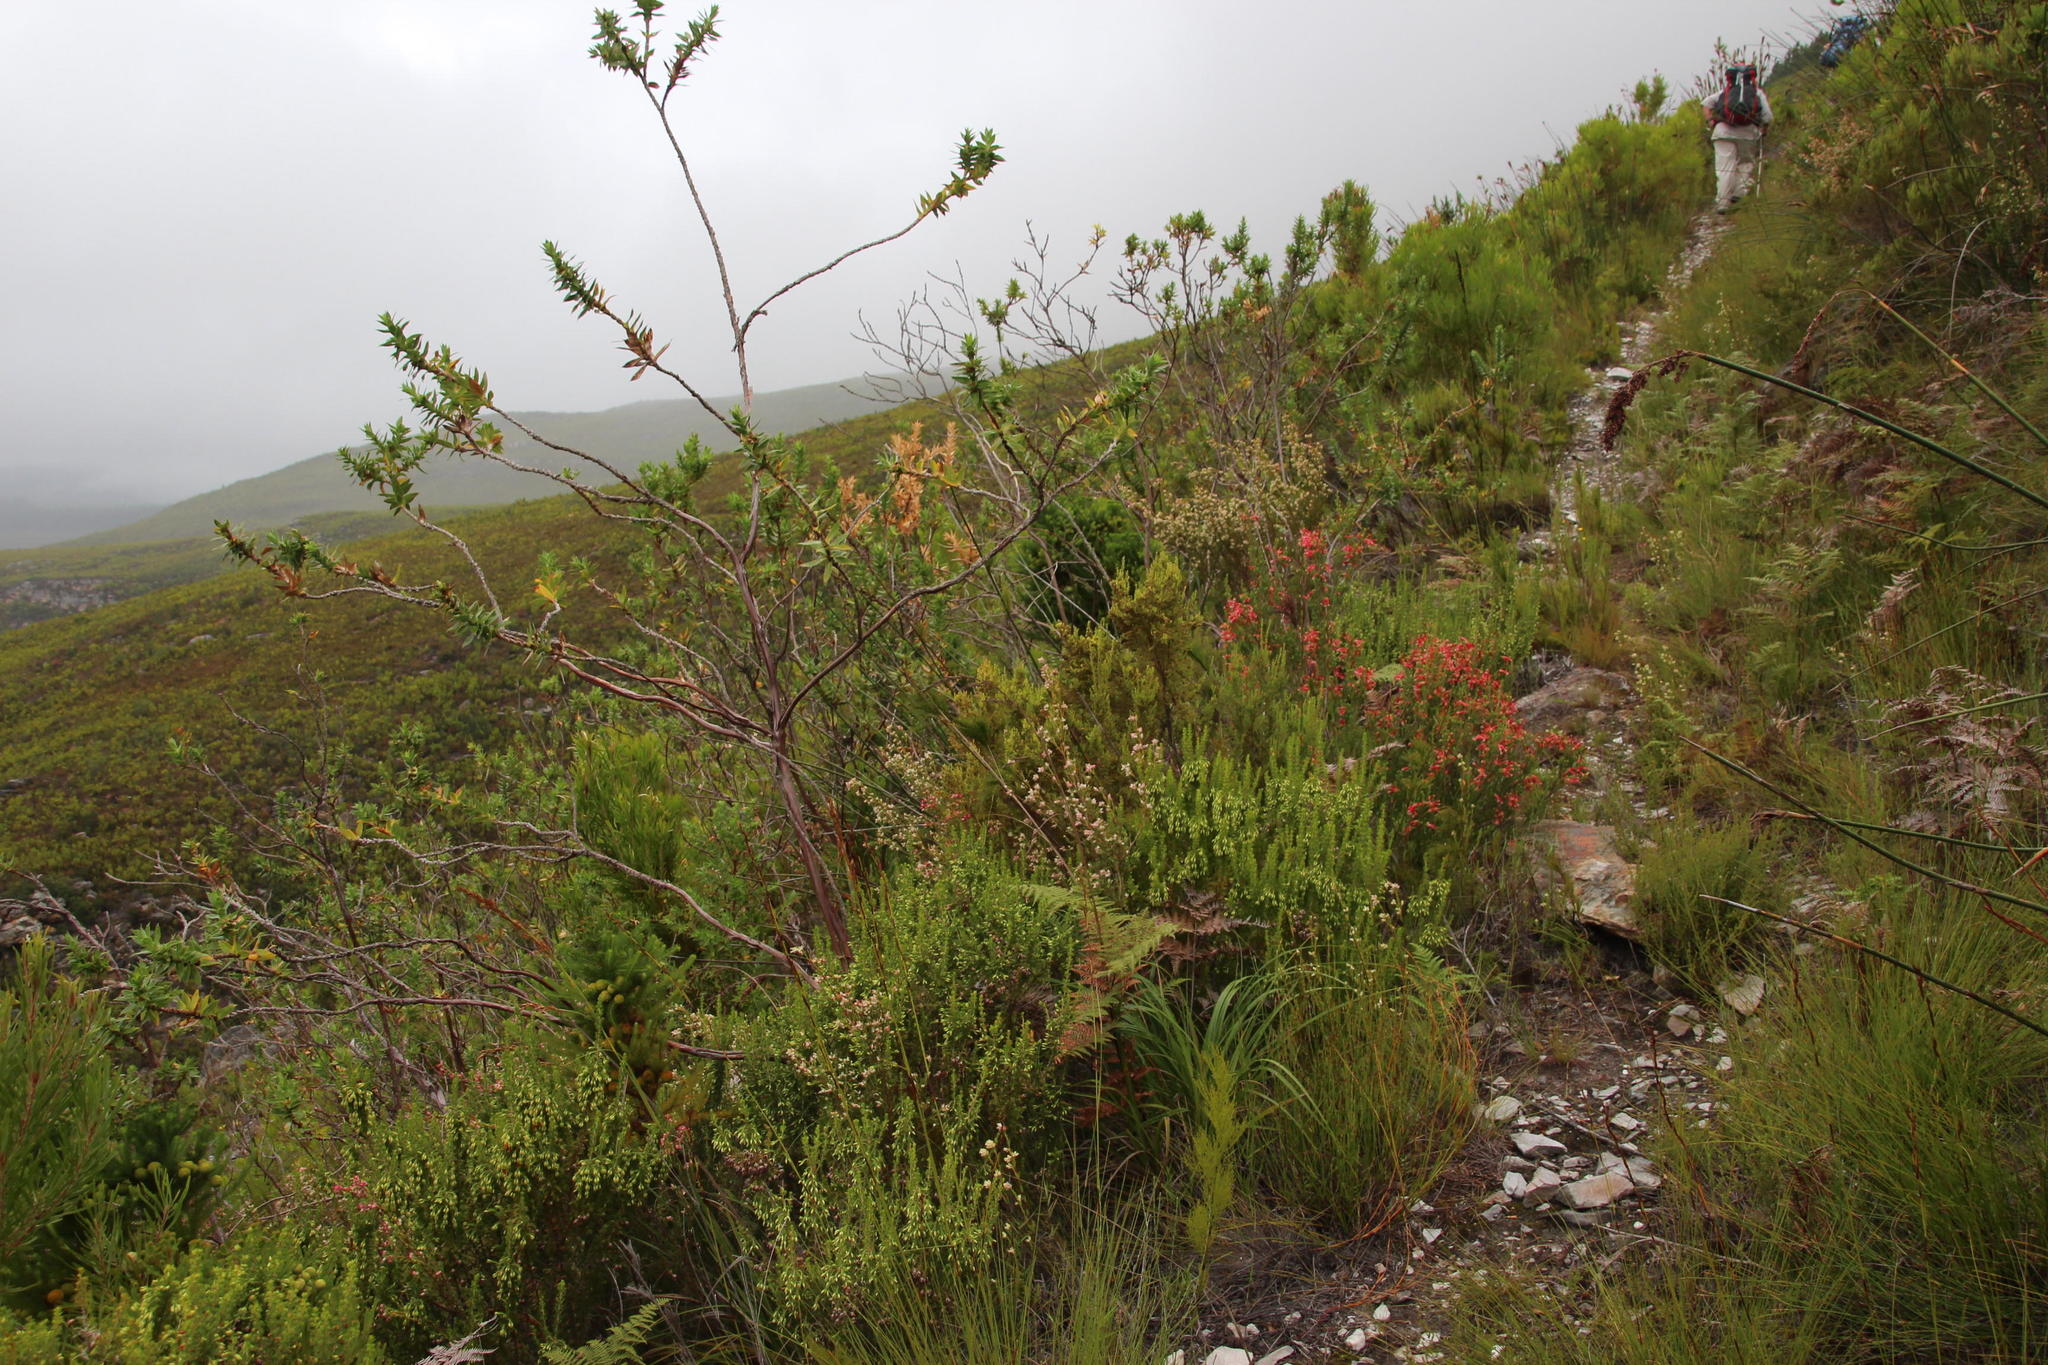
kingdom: Plantae
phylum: Tracheophyta
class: Magnoliopsida
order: Myrtales
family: Penaeaceae
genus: Stylapterus
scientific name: Stylapterus dubius
